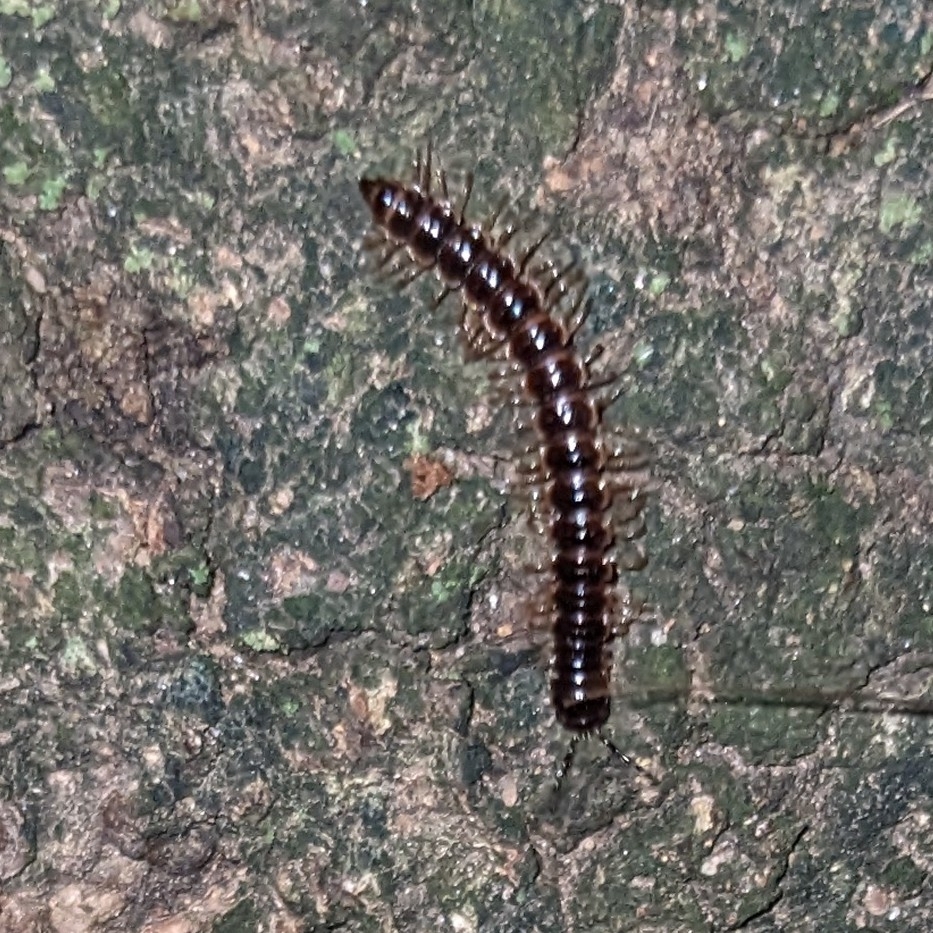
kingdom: Animalia
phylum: Arthropoda
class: Diplopoda
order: Polydesmida
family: Paradoxosomatidae
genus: Oxidus
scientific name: Oxidus gracilis
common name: Greenhouse millipede
